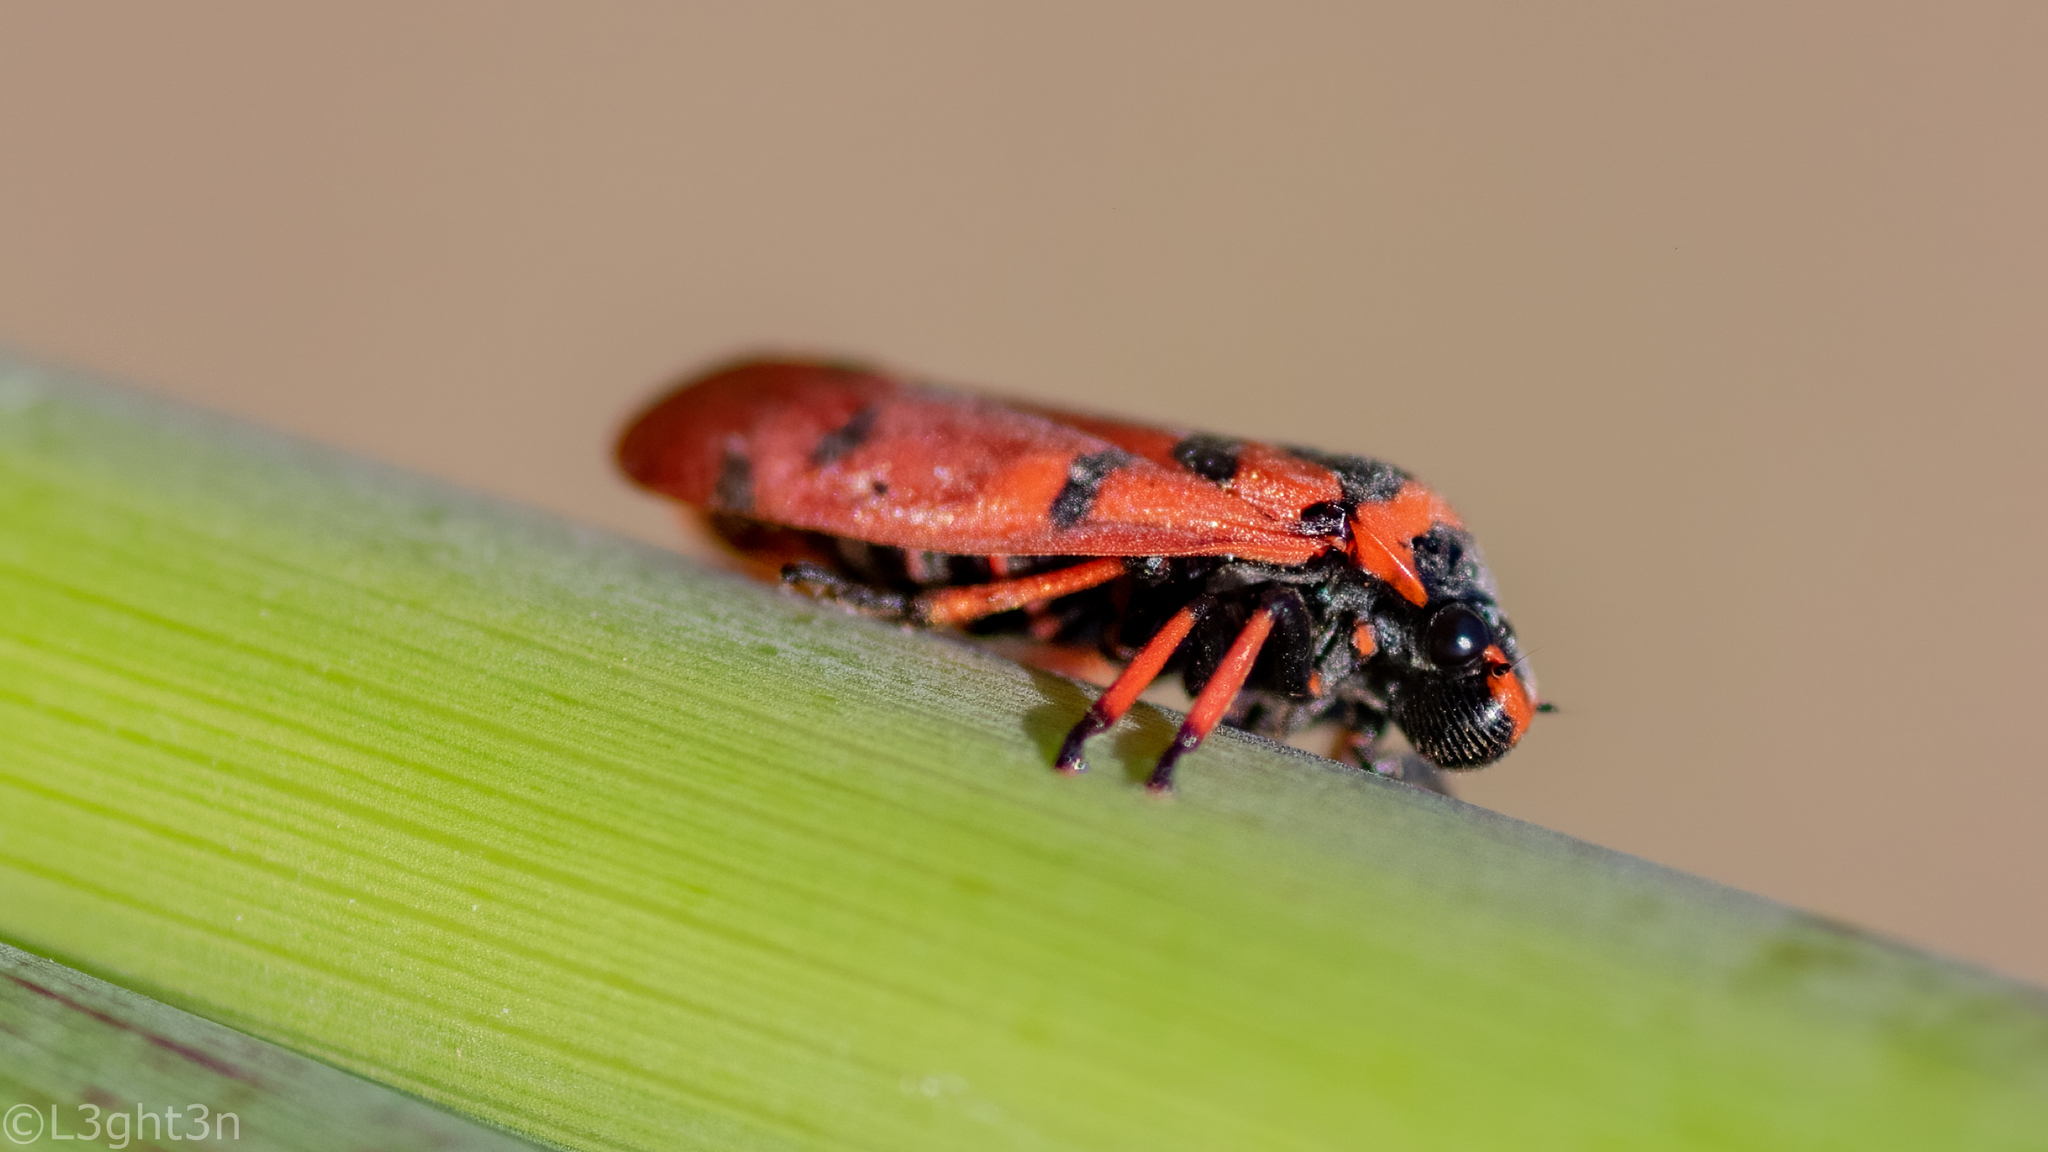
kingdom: Animalia
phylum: Arthropoda
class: Insecta
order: Hemiptera
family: Cercopidae
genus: Locris
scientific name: Locris arithmetica
